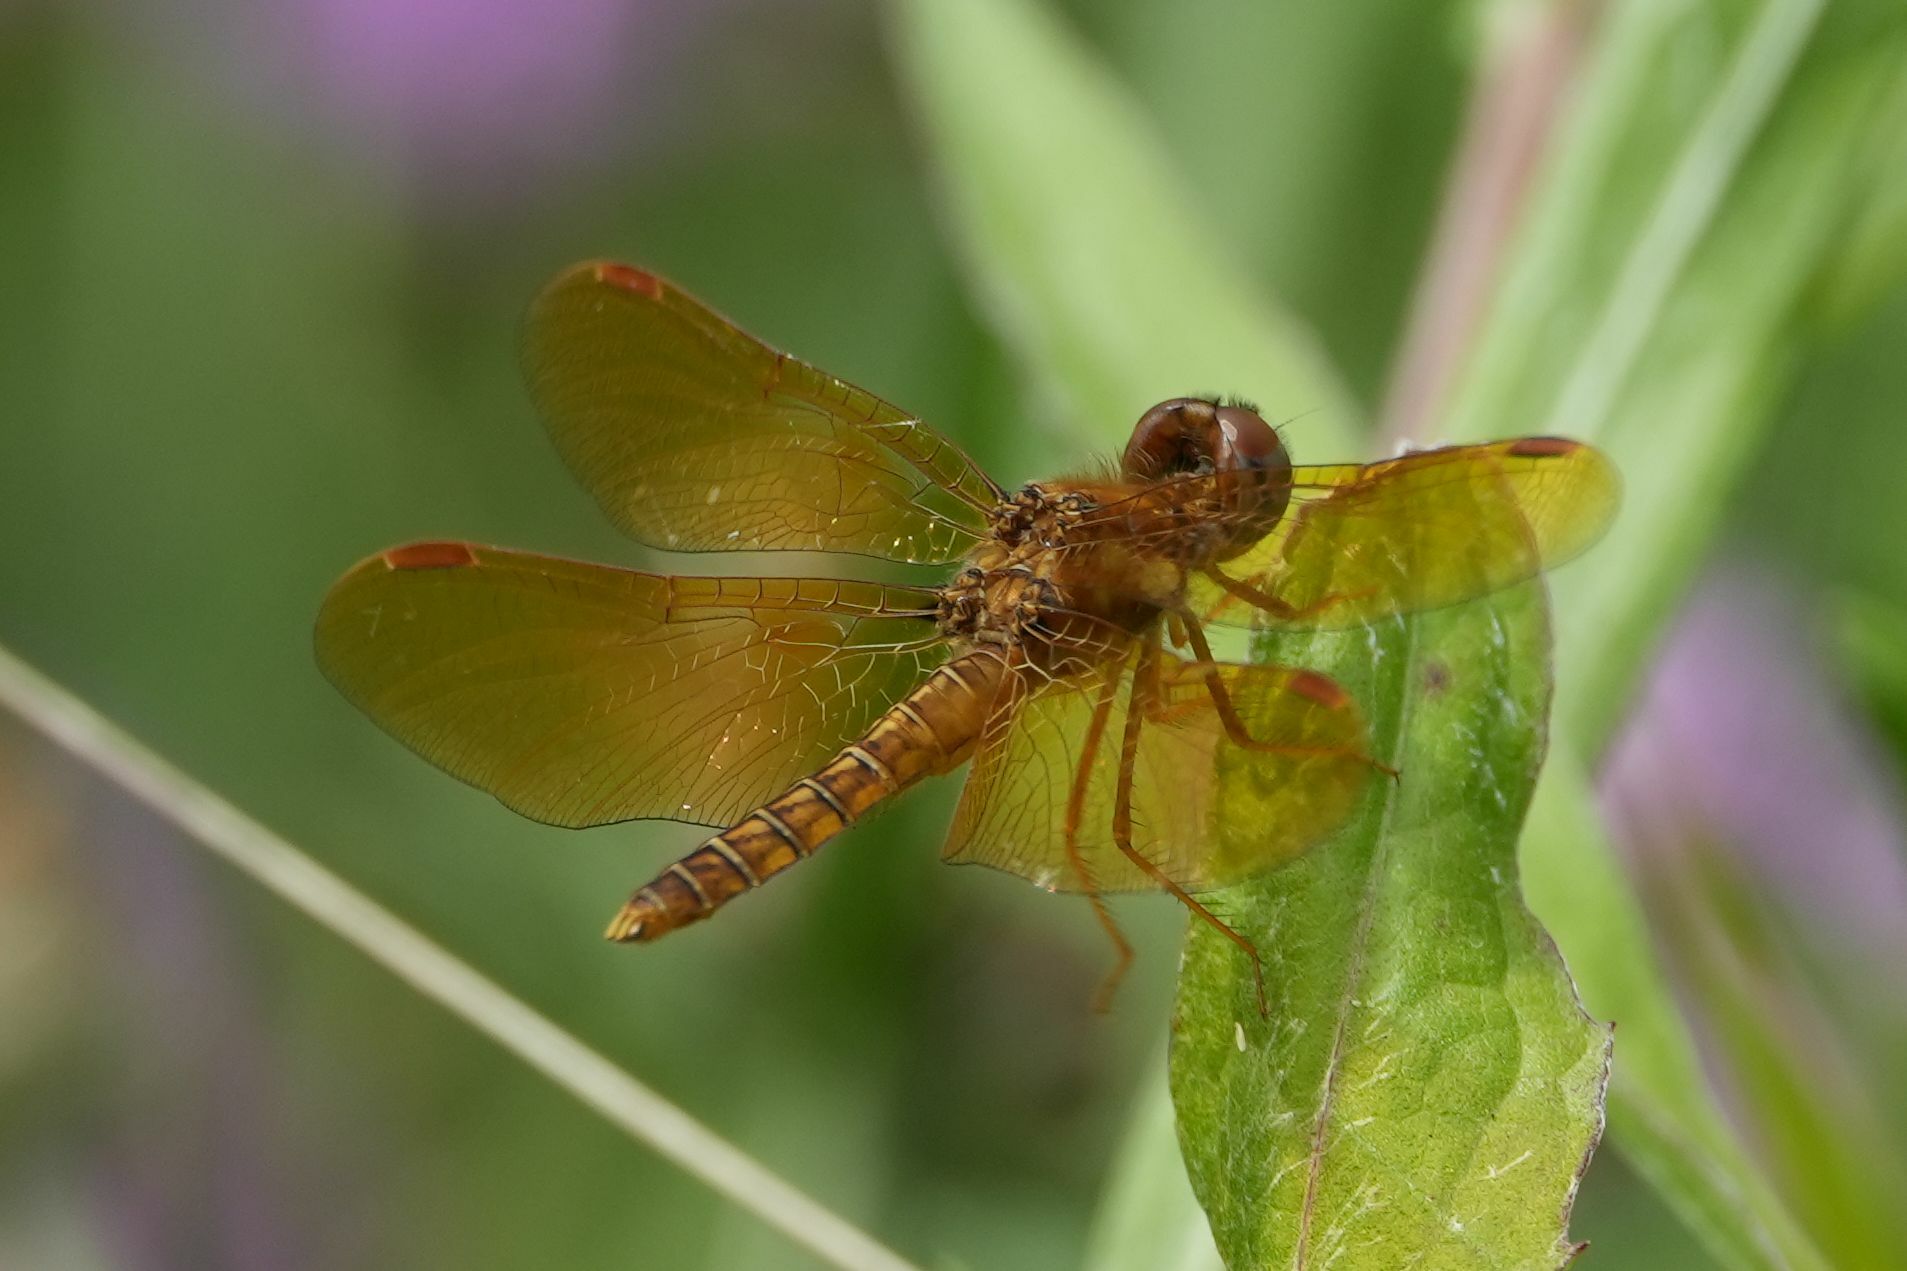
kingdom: Animalia
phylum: Arthropoda
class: Insecta
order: Odonata
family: Libellulidae
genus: Perithemis
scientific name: Perithemis tenera
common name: Eastern amberwing
